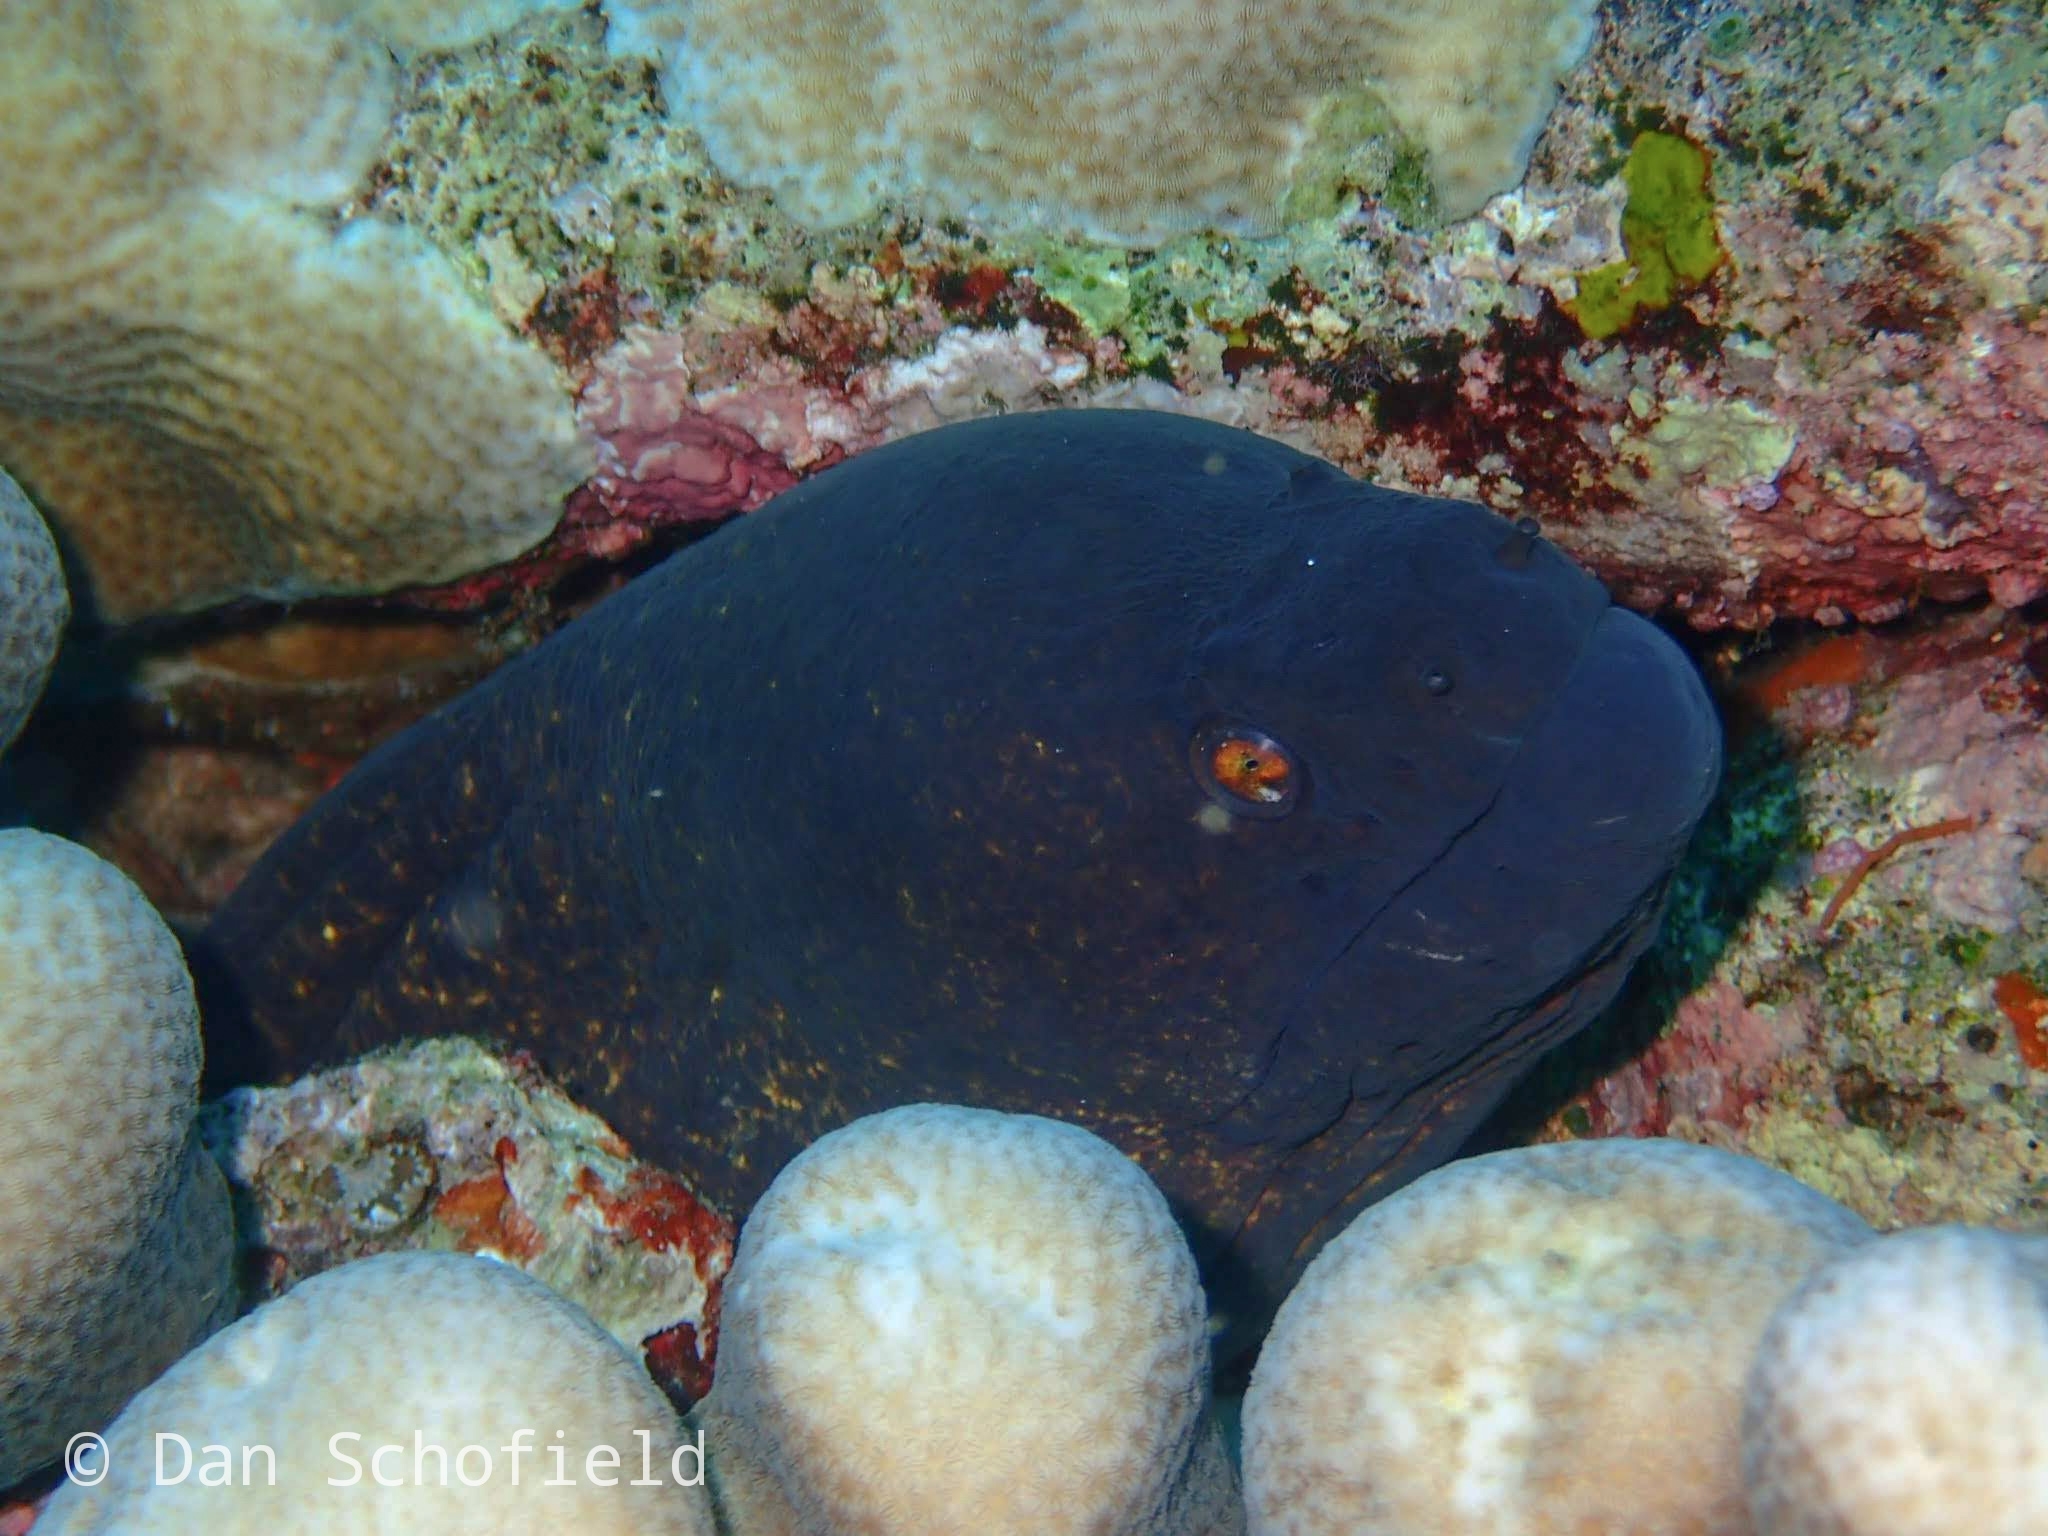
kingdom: Animalia
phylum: Chordata
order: Anguilliformes
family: Muraenidae
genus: Gymnothorax
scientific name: Gymnothorax flavimarginatus
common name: Yellow-edged moray
